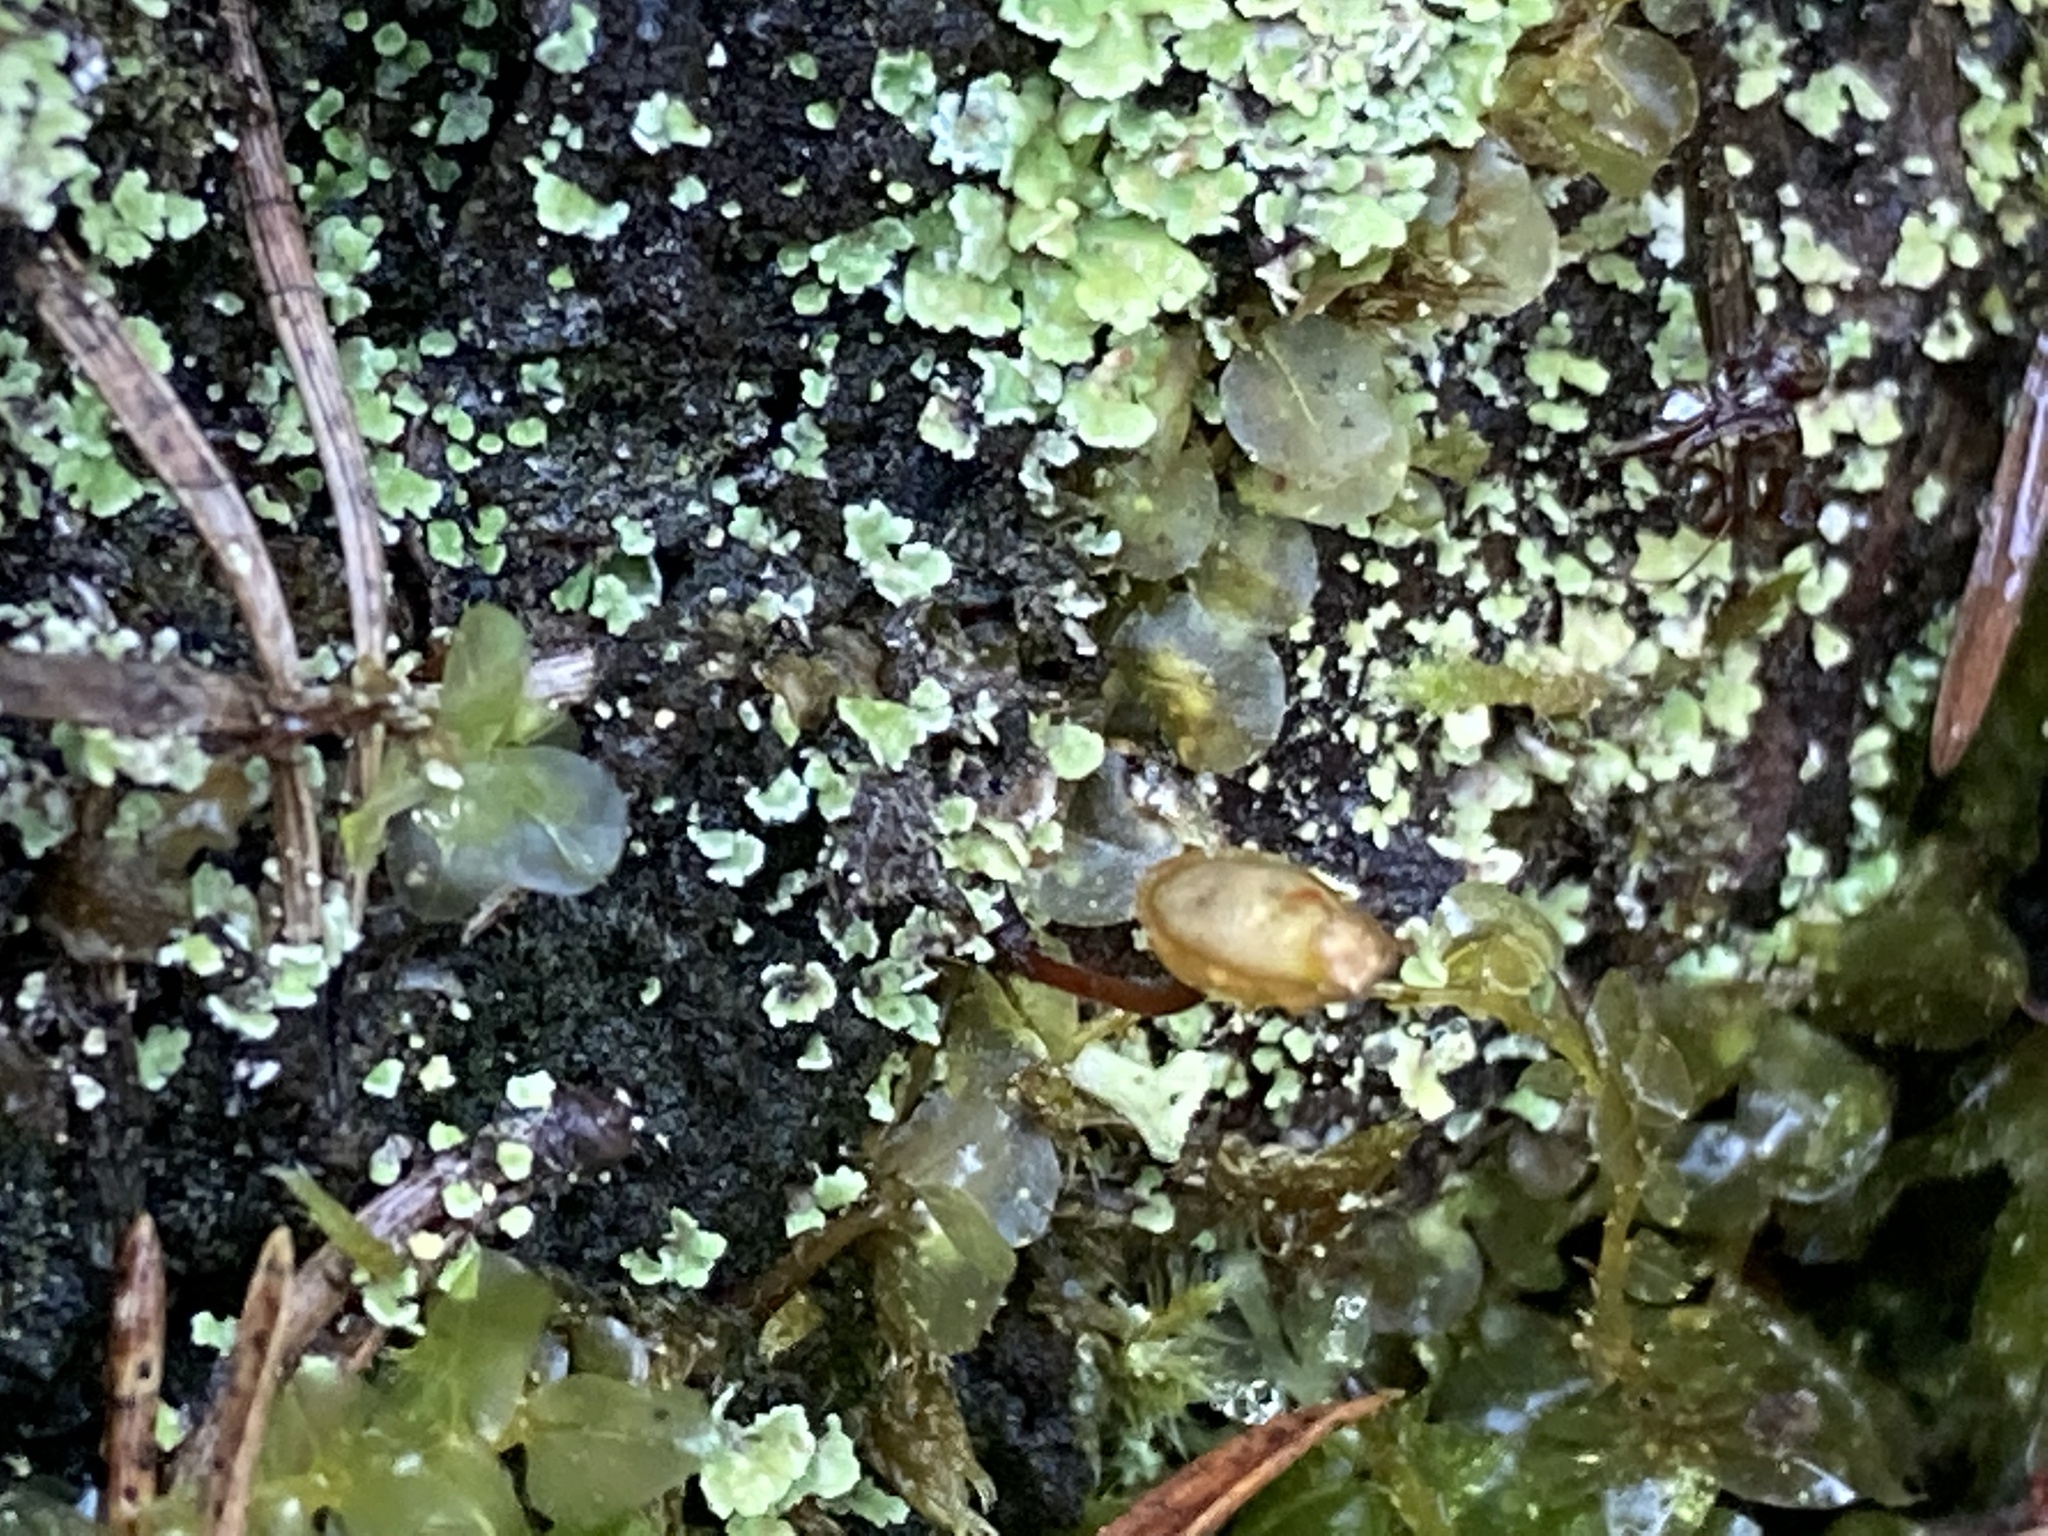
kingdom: Plantae
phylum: Bryophyta
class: Bryopsida
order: Buxbaumiales
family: Buxbaumiaceae
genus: Buxbaumia
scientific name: Buxbaumia viridis
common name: Green shield-moss
